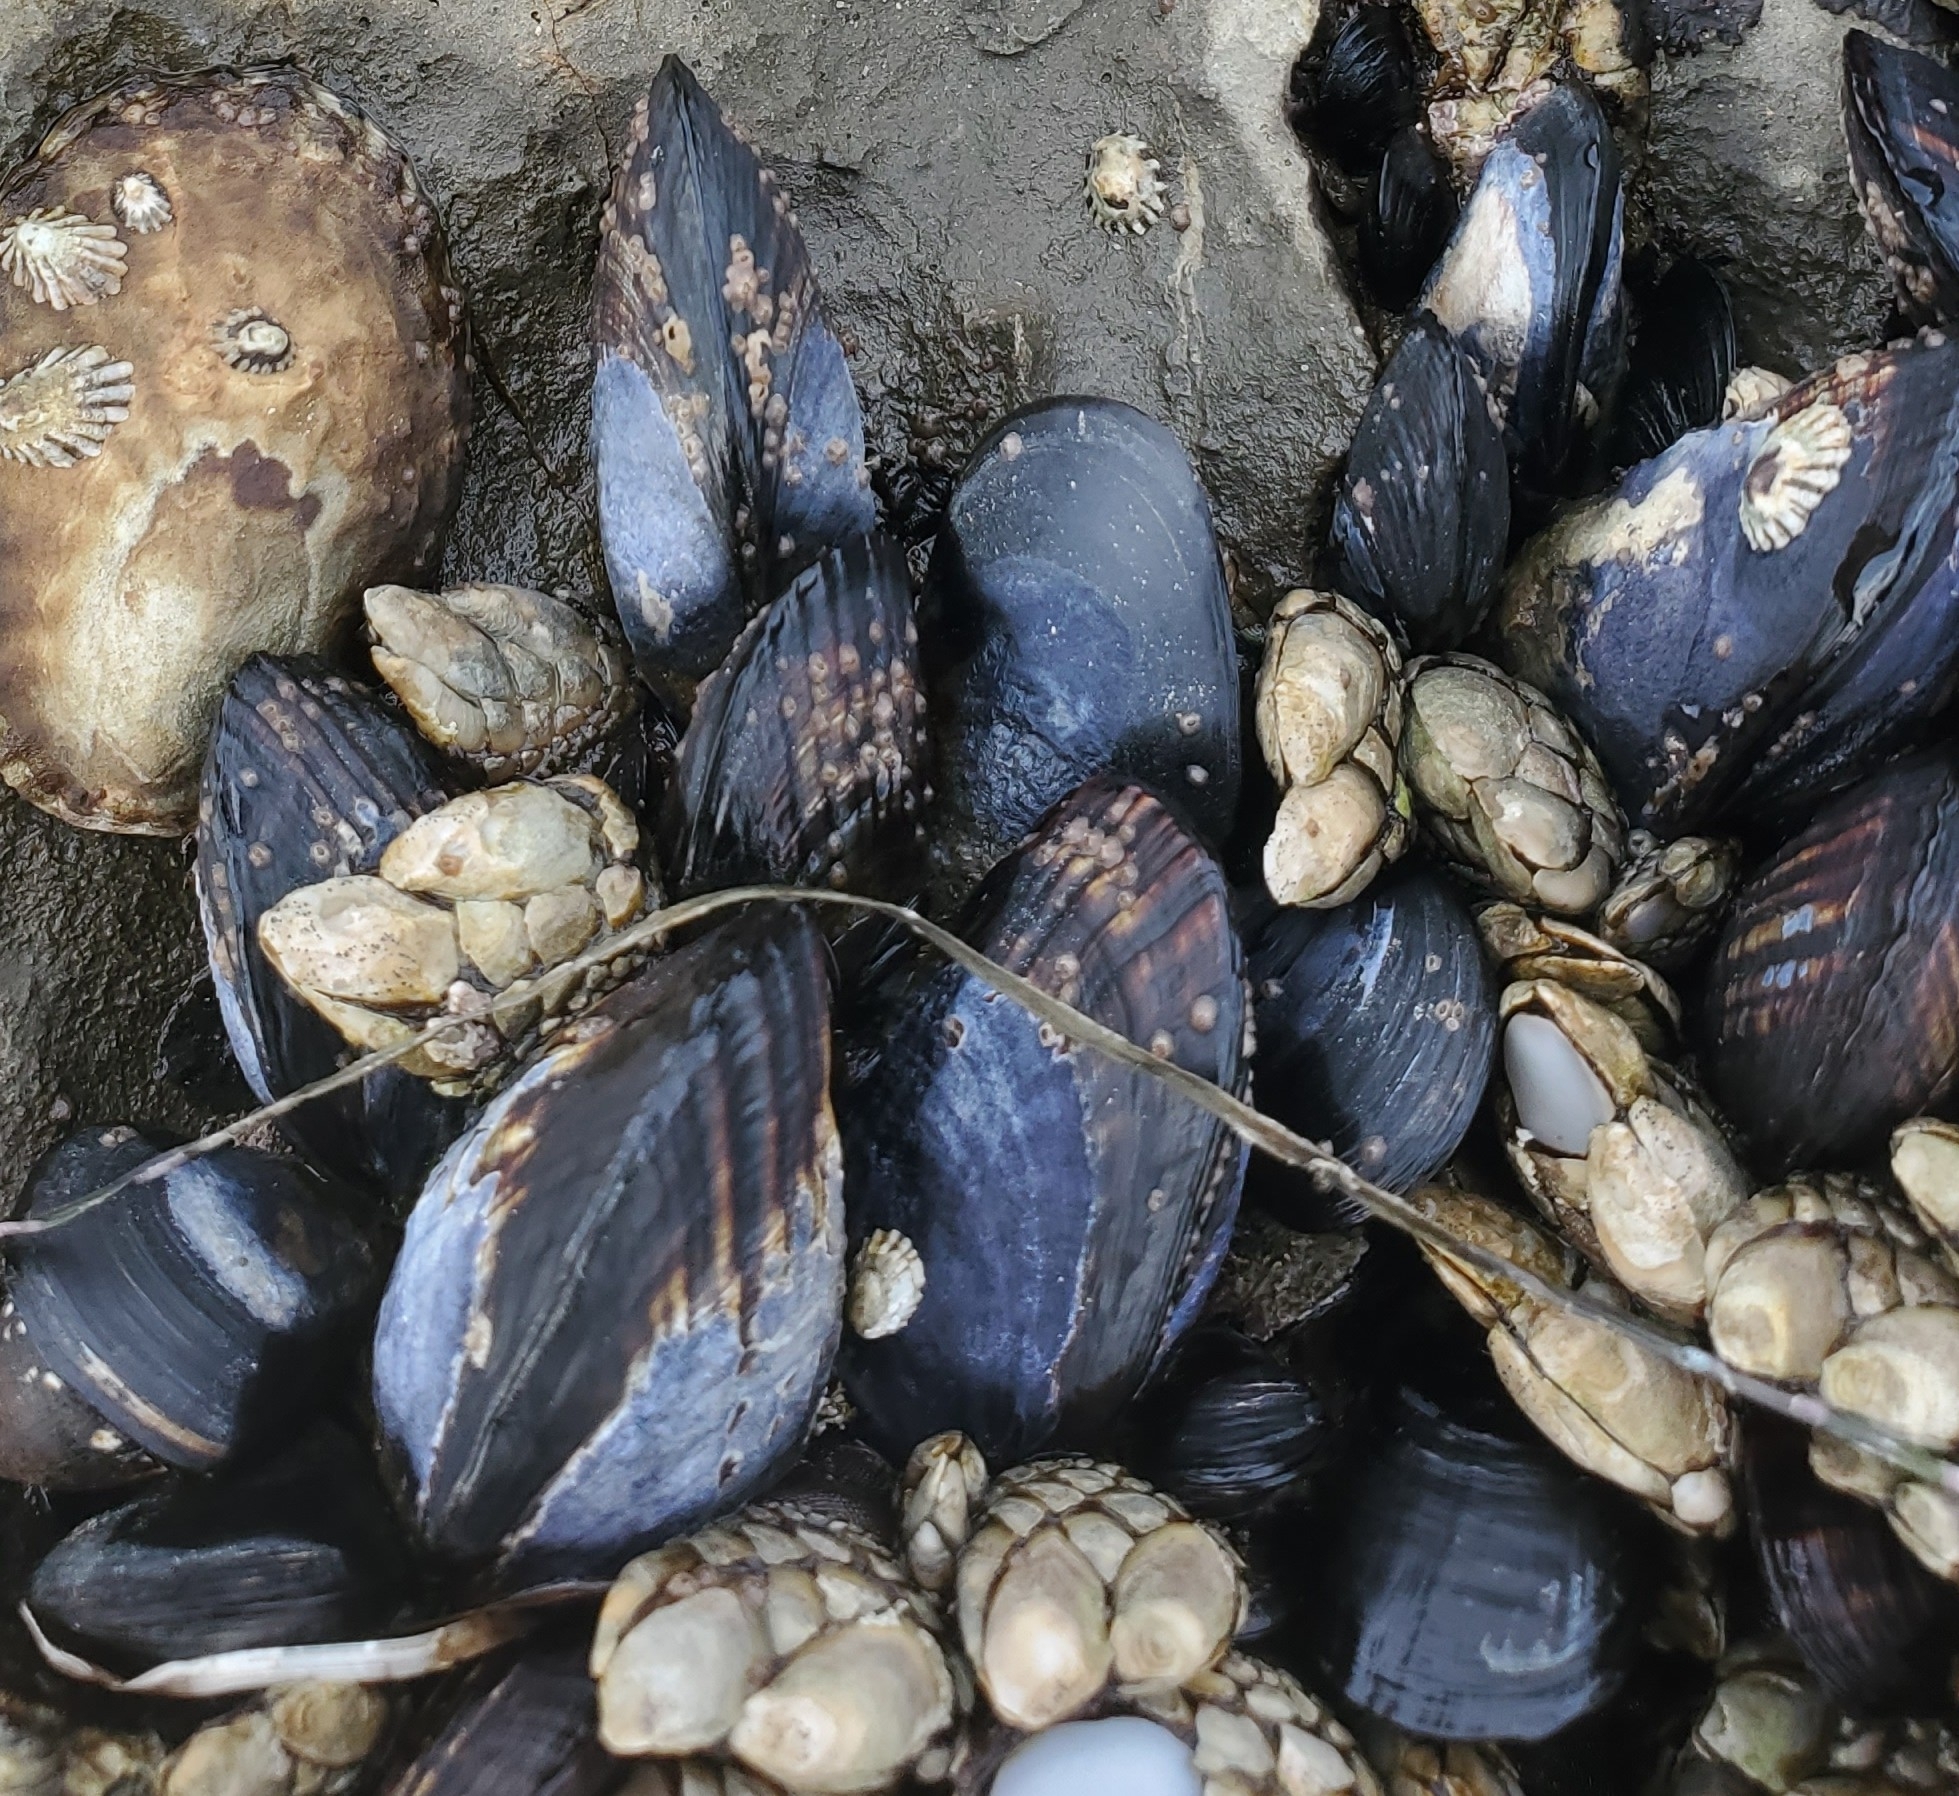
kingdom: Animalia
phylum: Mollusca
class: Bivalvia
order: Mytilida
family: Mytilidae
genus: Mytilus
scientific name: Mytilus californianus
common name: California mussel
